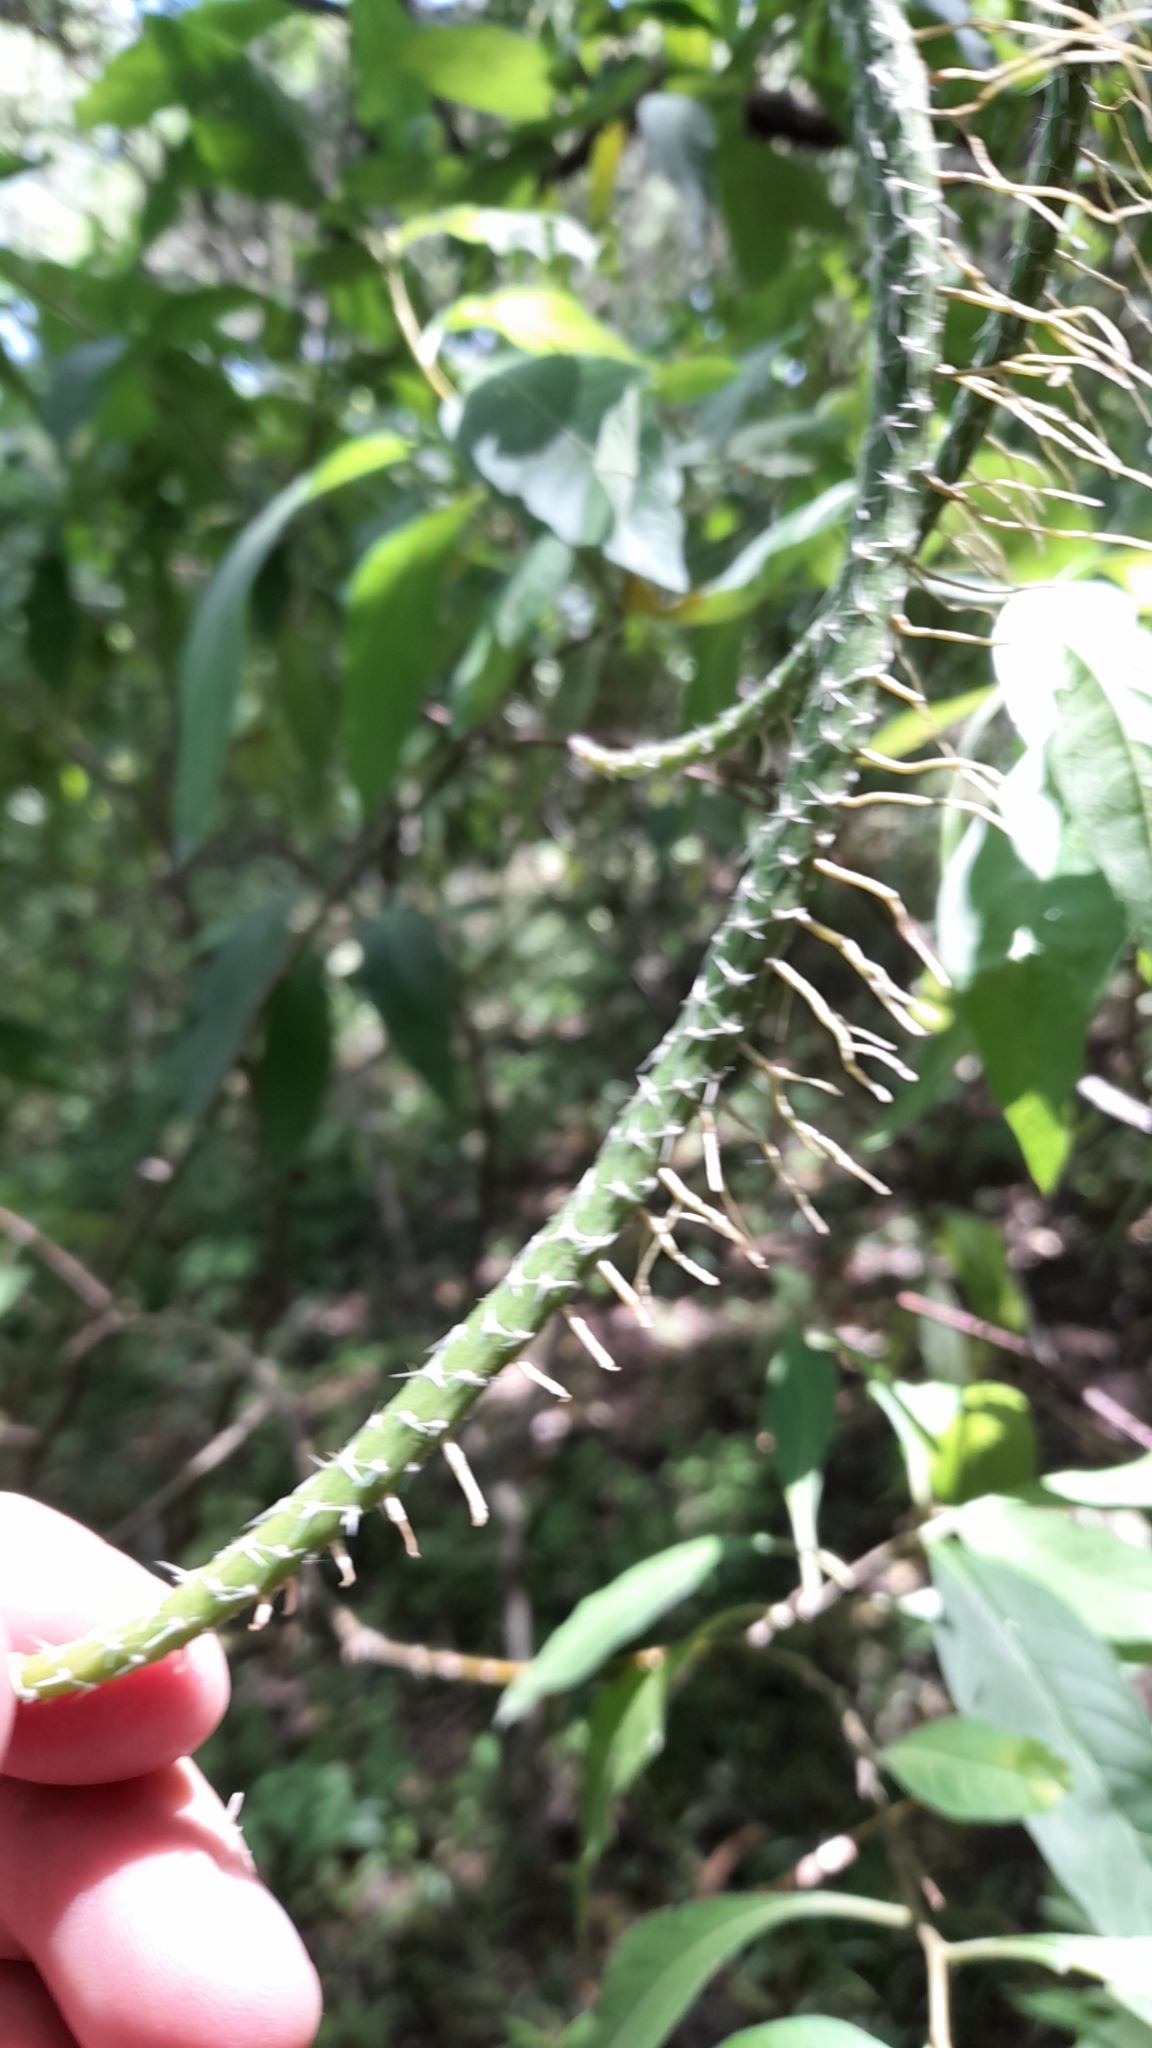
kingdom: Plantae
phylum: Tracheophyta
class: Magnoliopsida
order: Caryophyllales
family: Cactaceae
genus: Lepismium
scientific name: Lepismium lumbricoides
